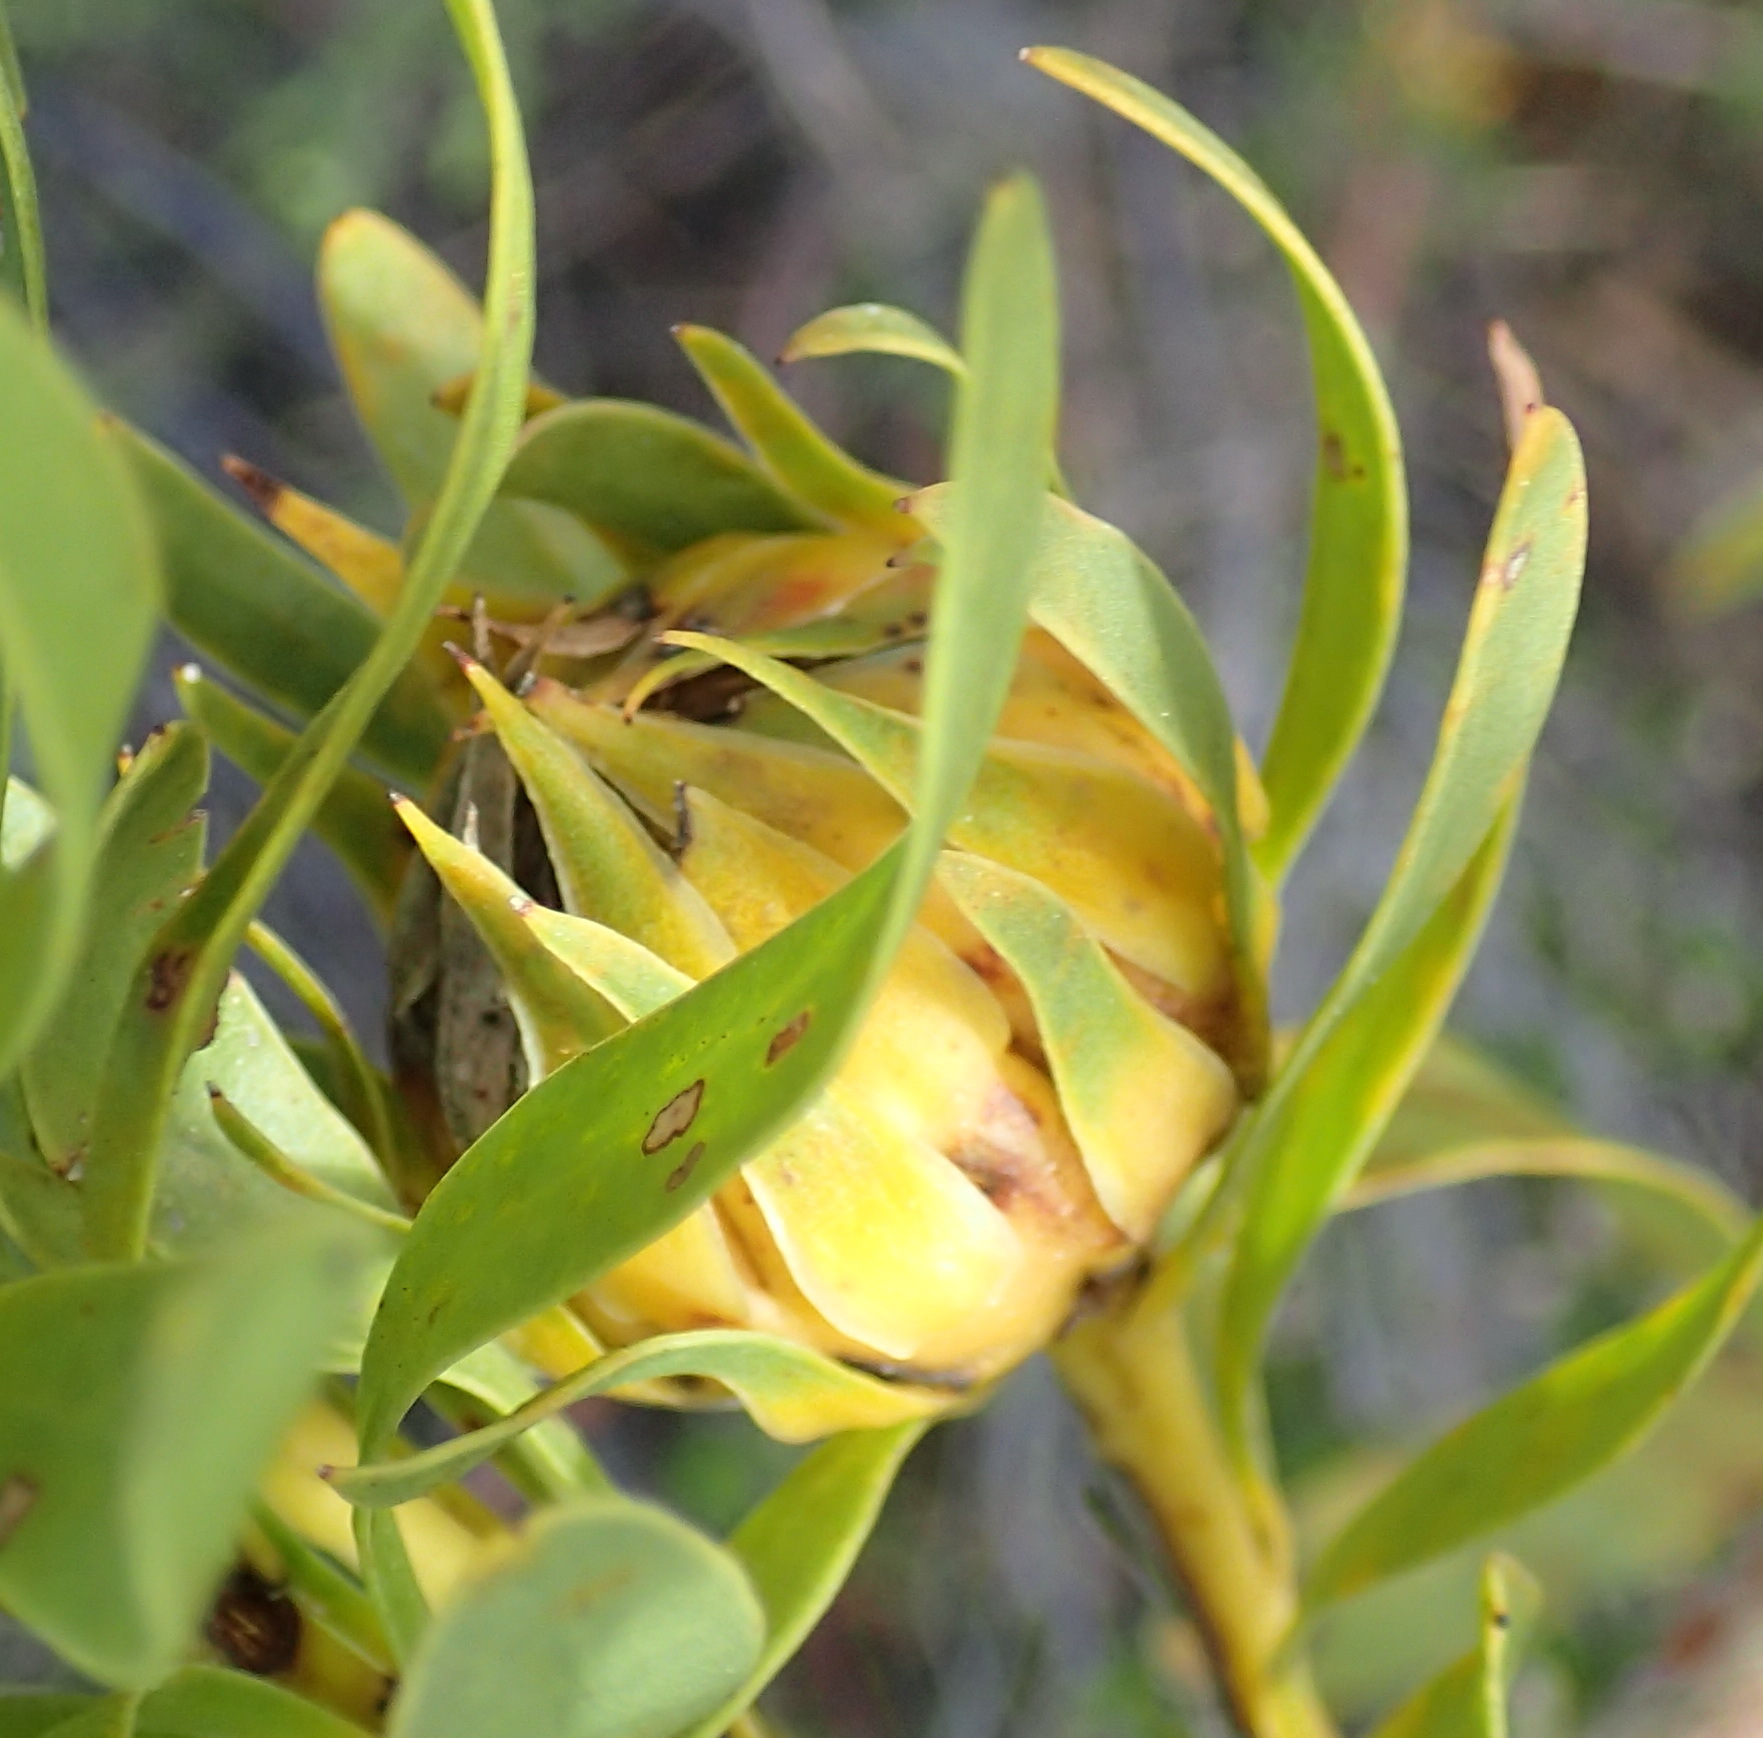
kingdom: Plantae
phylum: Tracheophyta
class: Magnoliopsida
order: Proteales
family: Proteaceae
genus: Aulax
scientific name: Aulax umbellata
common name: Broad-leaf featherbush
